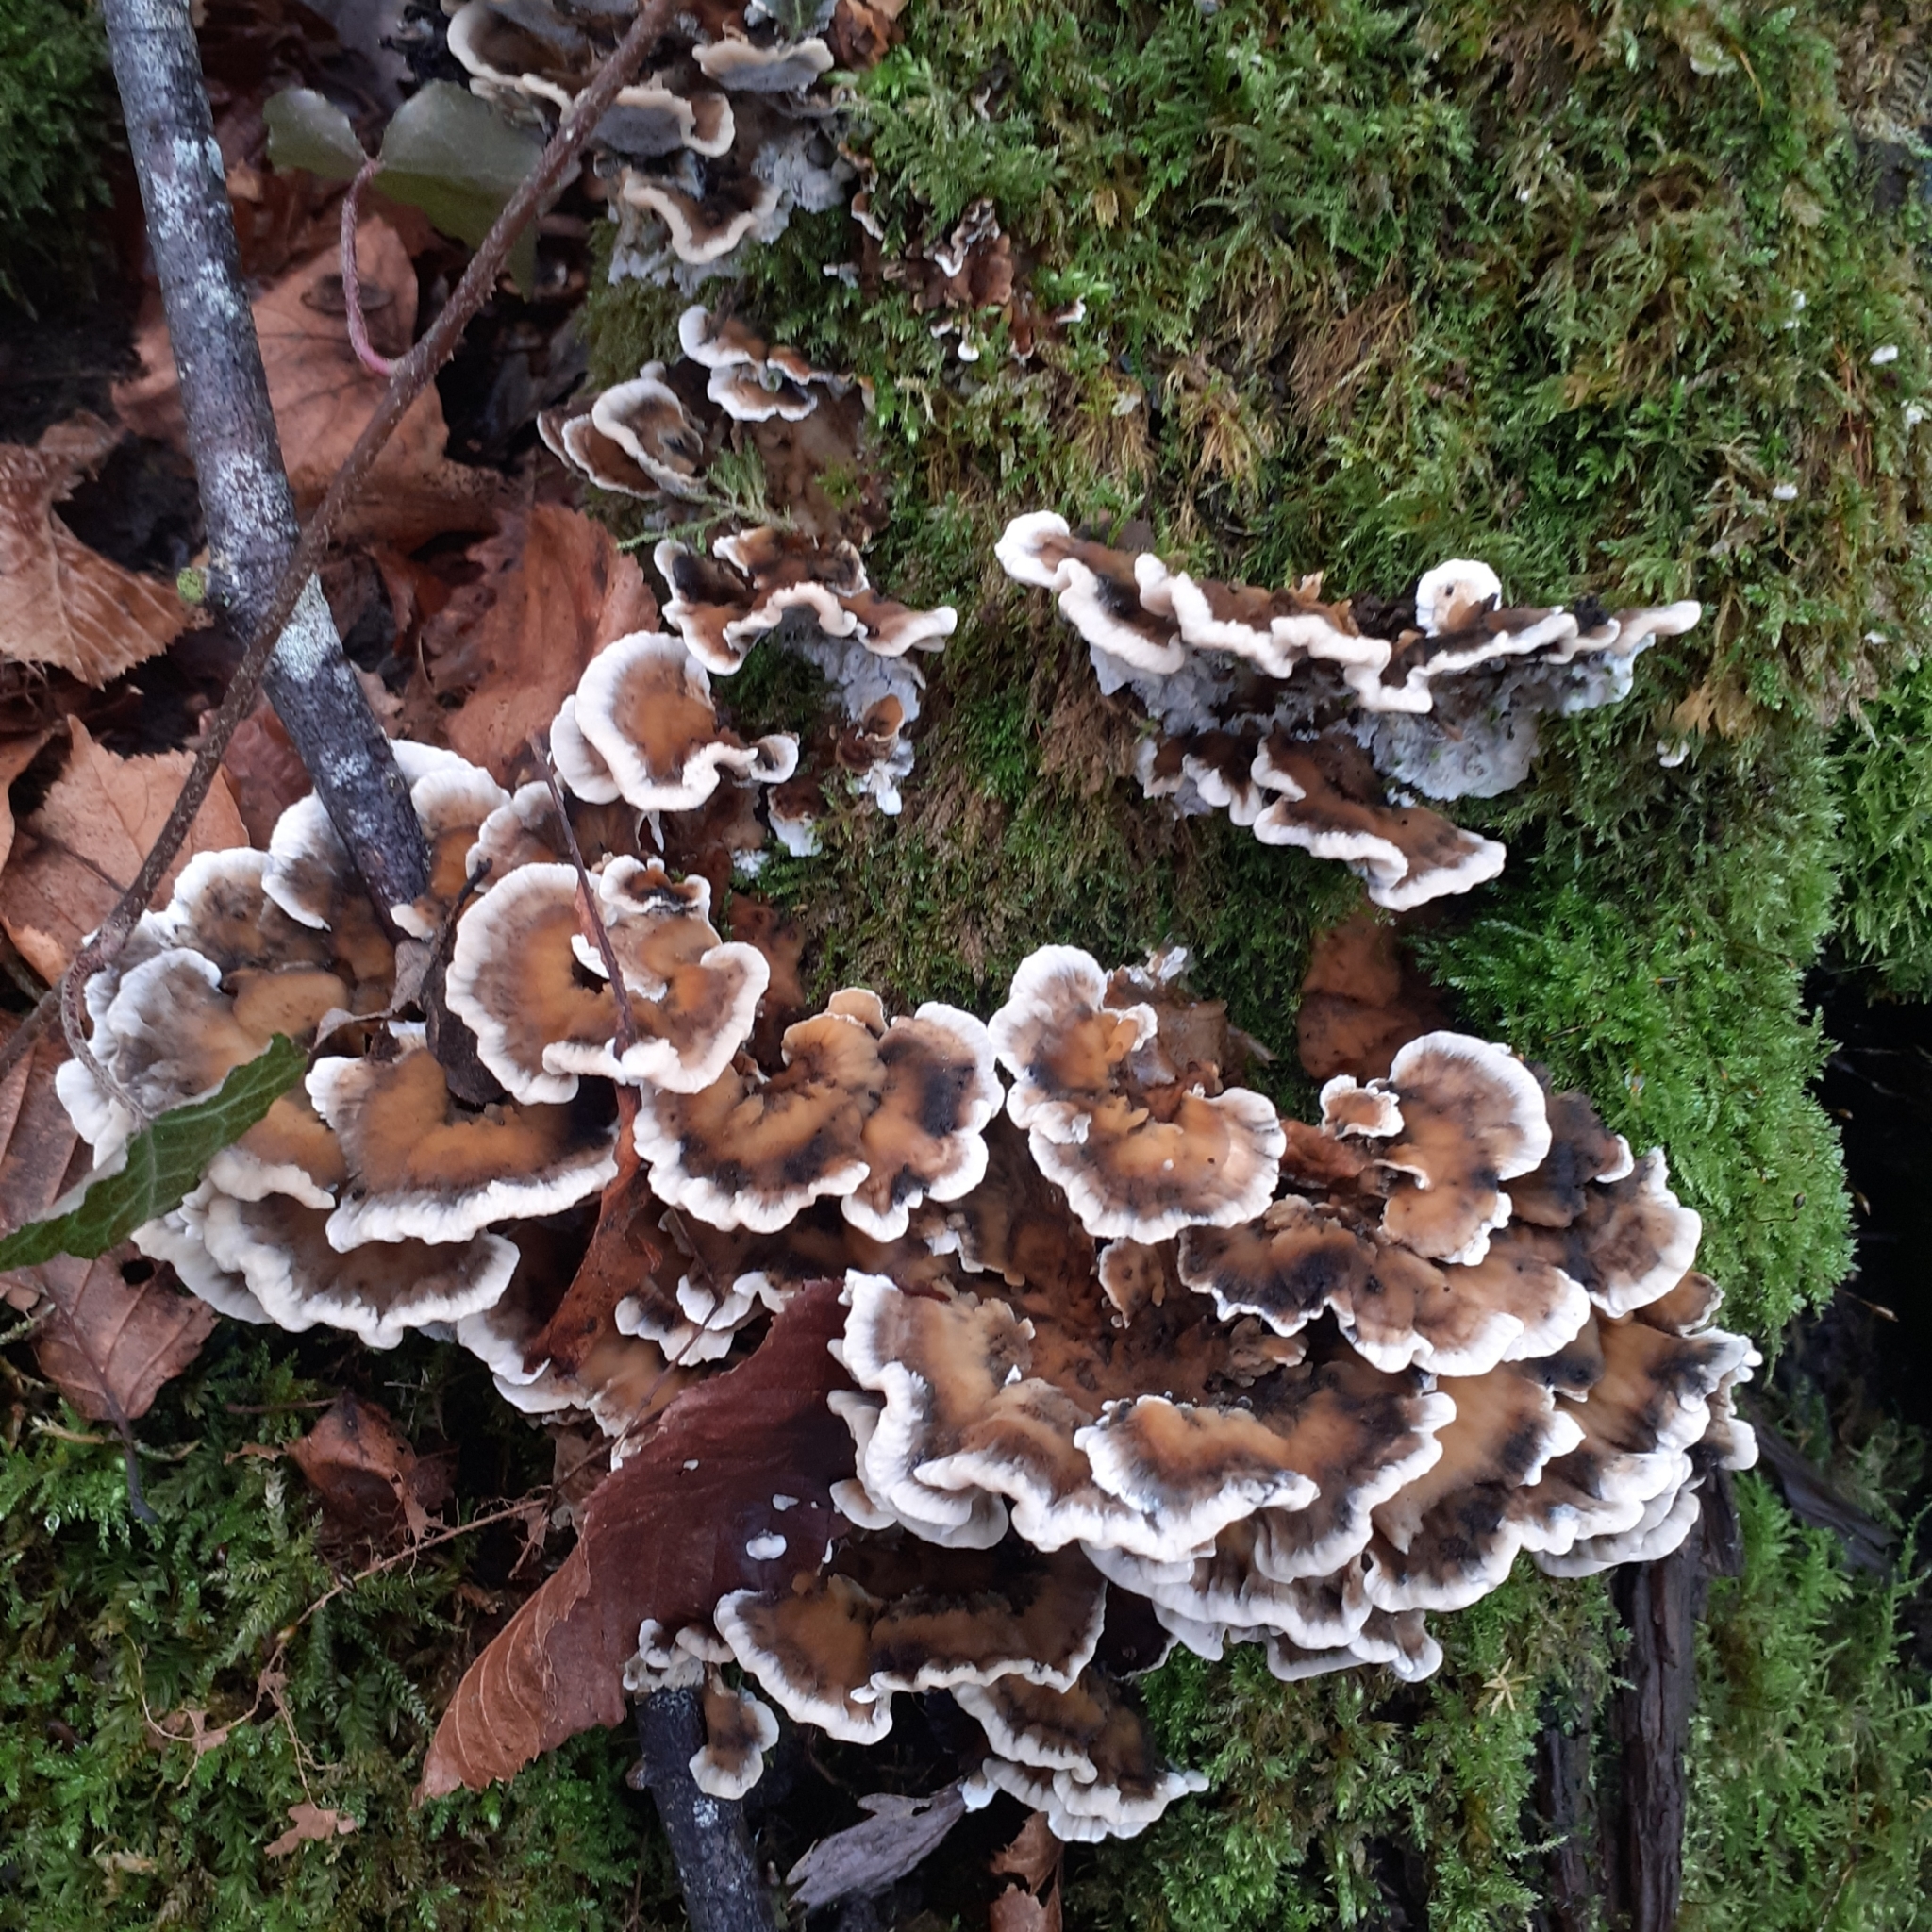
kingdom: Fungi
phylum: Basidiomycota
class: Agaricomycetes
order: Polyporales
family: Phanerochaetaceae
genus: Bjerkandera
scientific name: Bjerkandera adusta
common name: Smoky bracket
